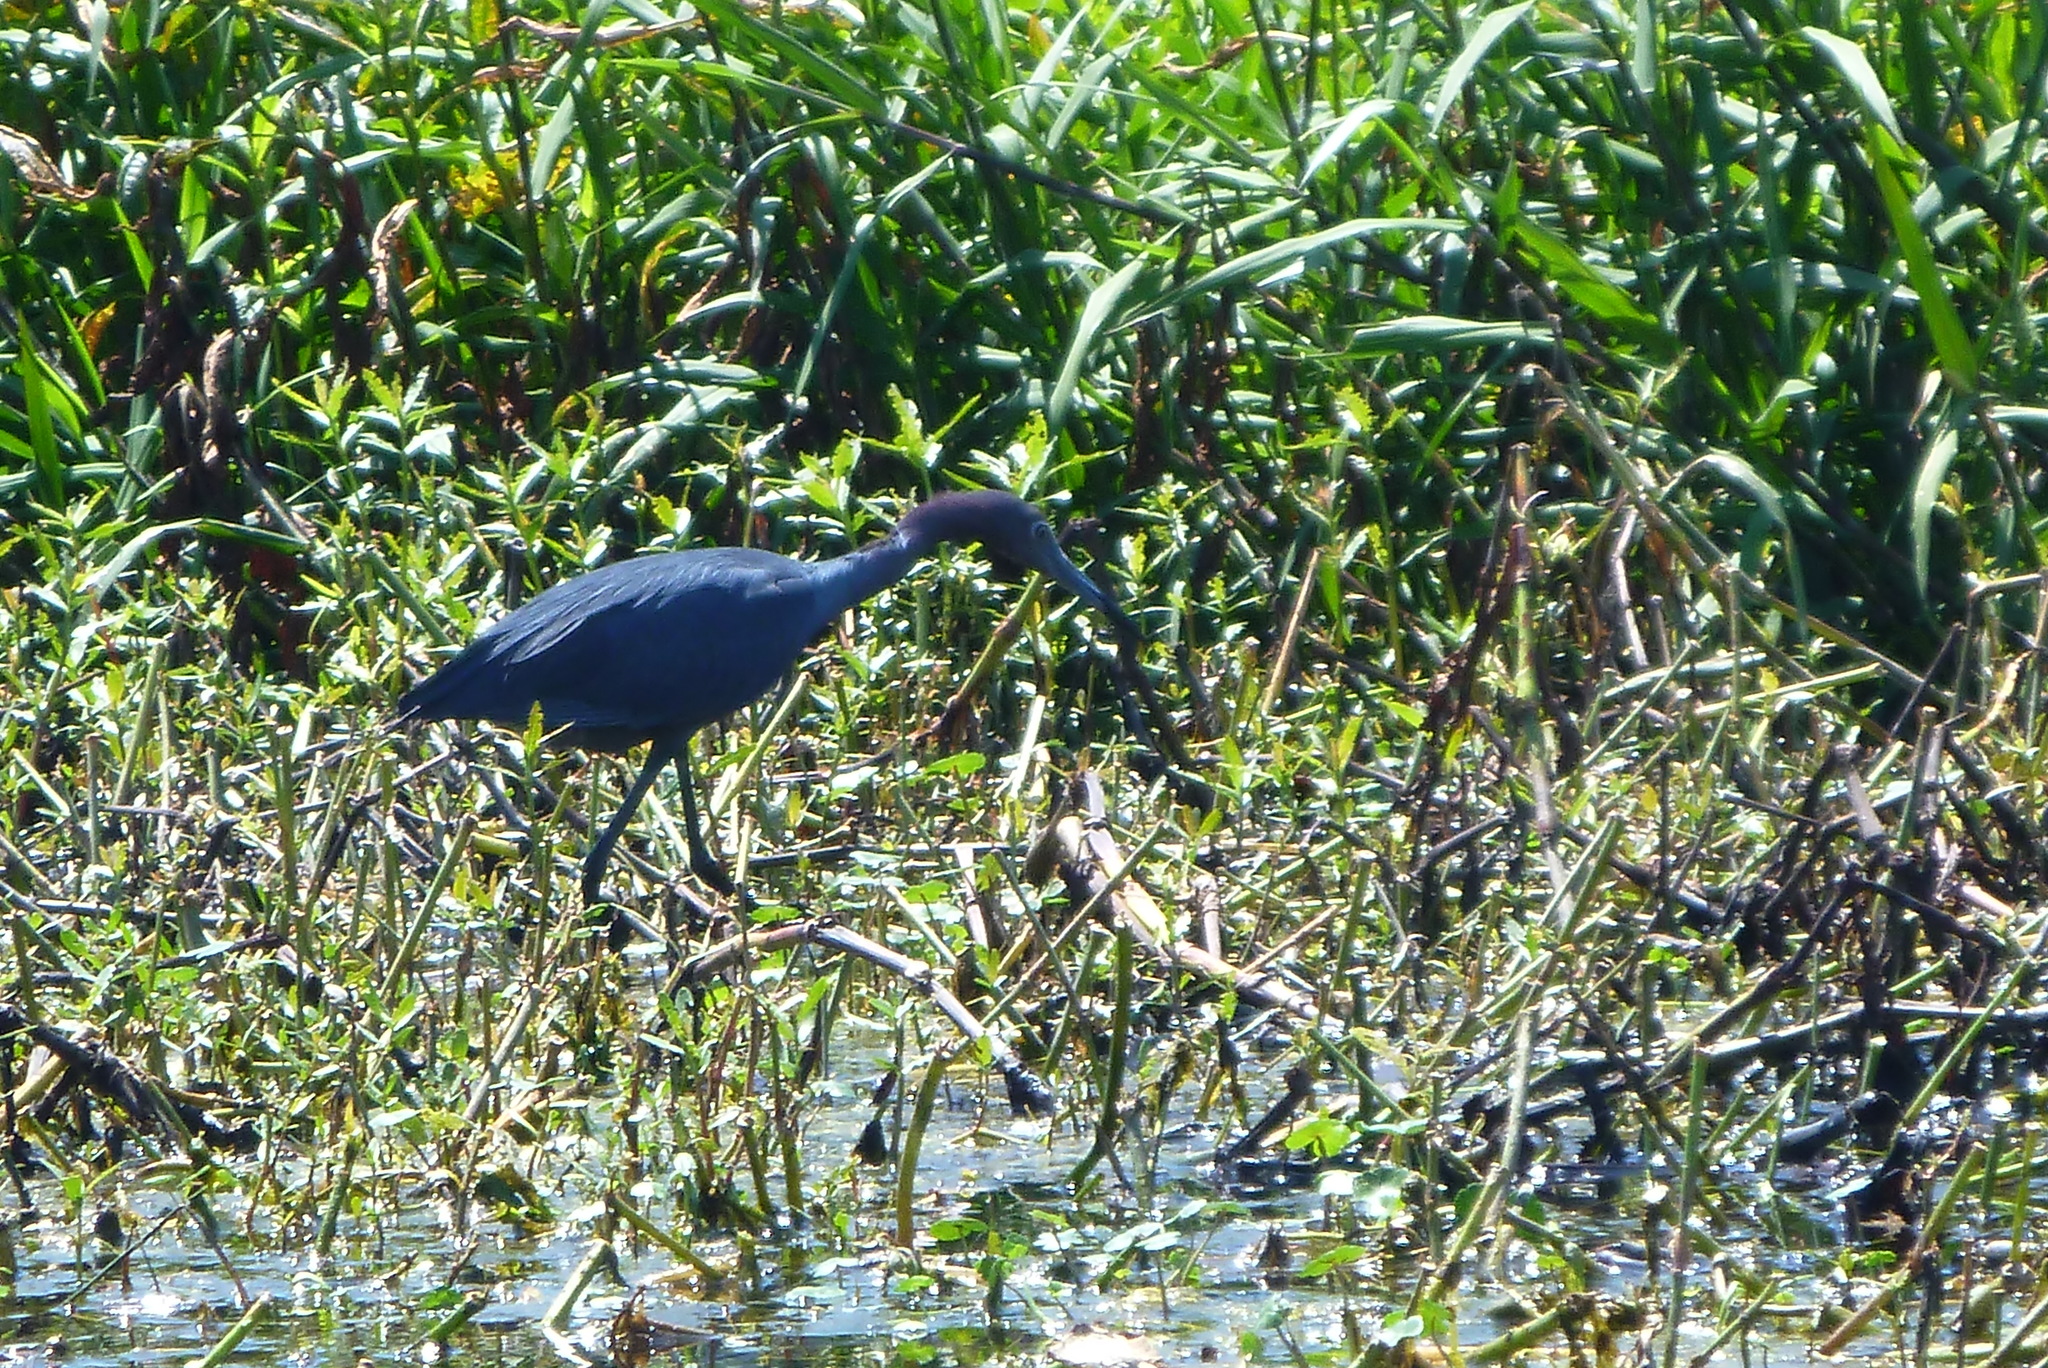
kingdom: Animalia
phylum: Chordata
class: Aves
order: Pelecaniformes
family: Ardeidae
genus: Egretta
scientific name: Egretta caerulea
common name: Little blue heron
